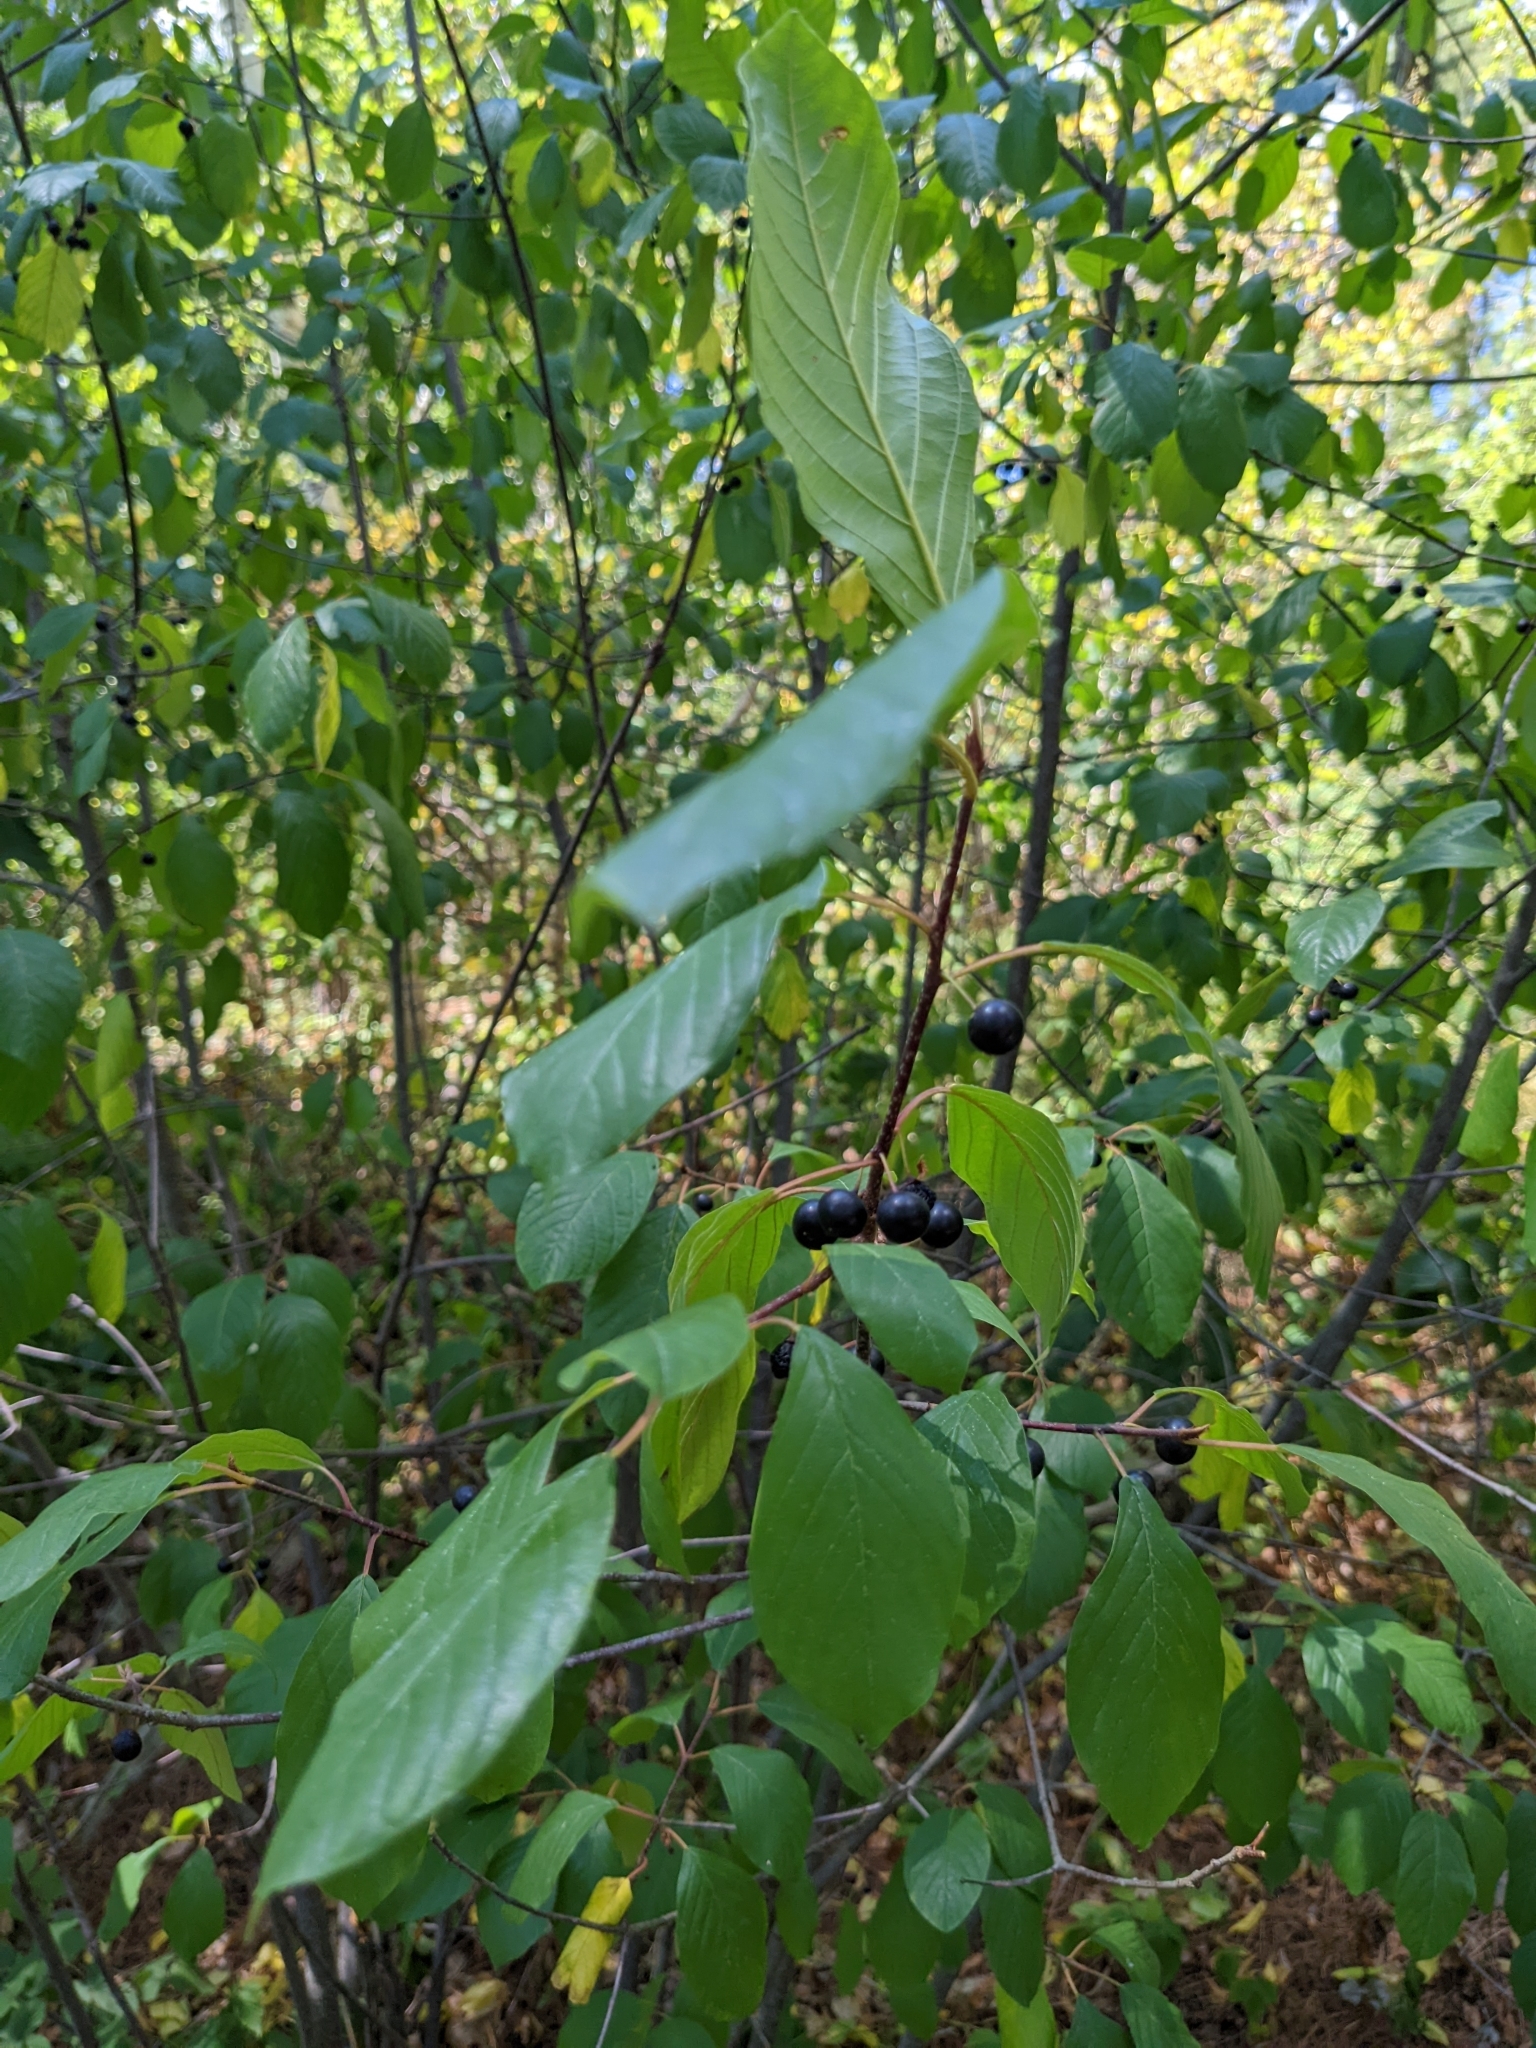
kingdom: Plantae
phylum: Tracheophyta
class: Magnoliopsida
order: Rosales
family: Rhamnaceae
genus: Frangula
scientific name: Frangula alnus
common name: Alder buckthorn
